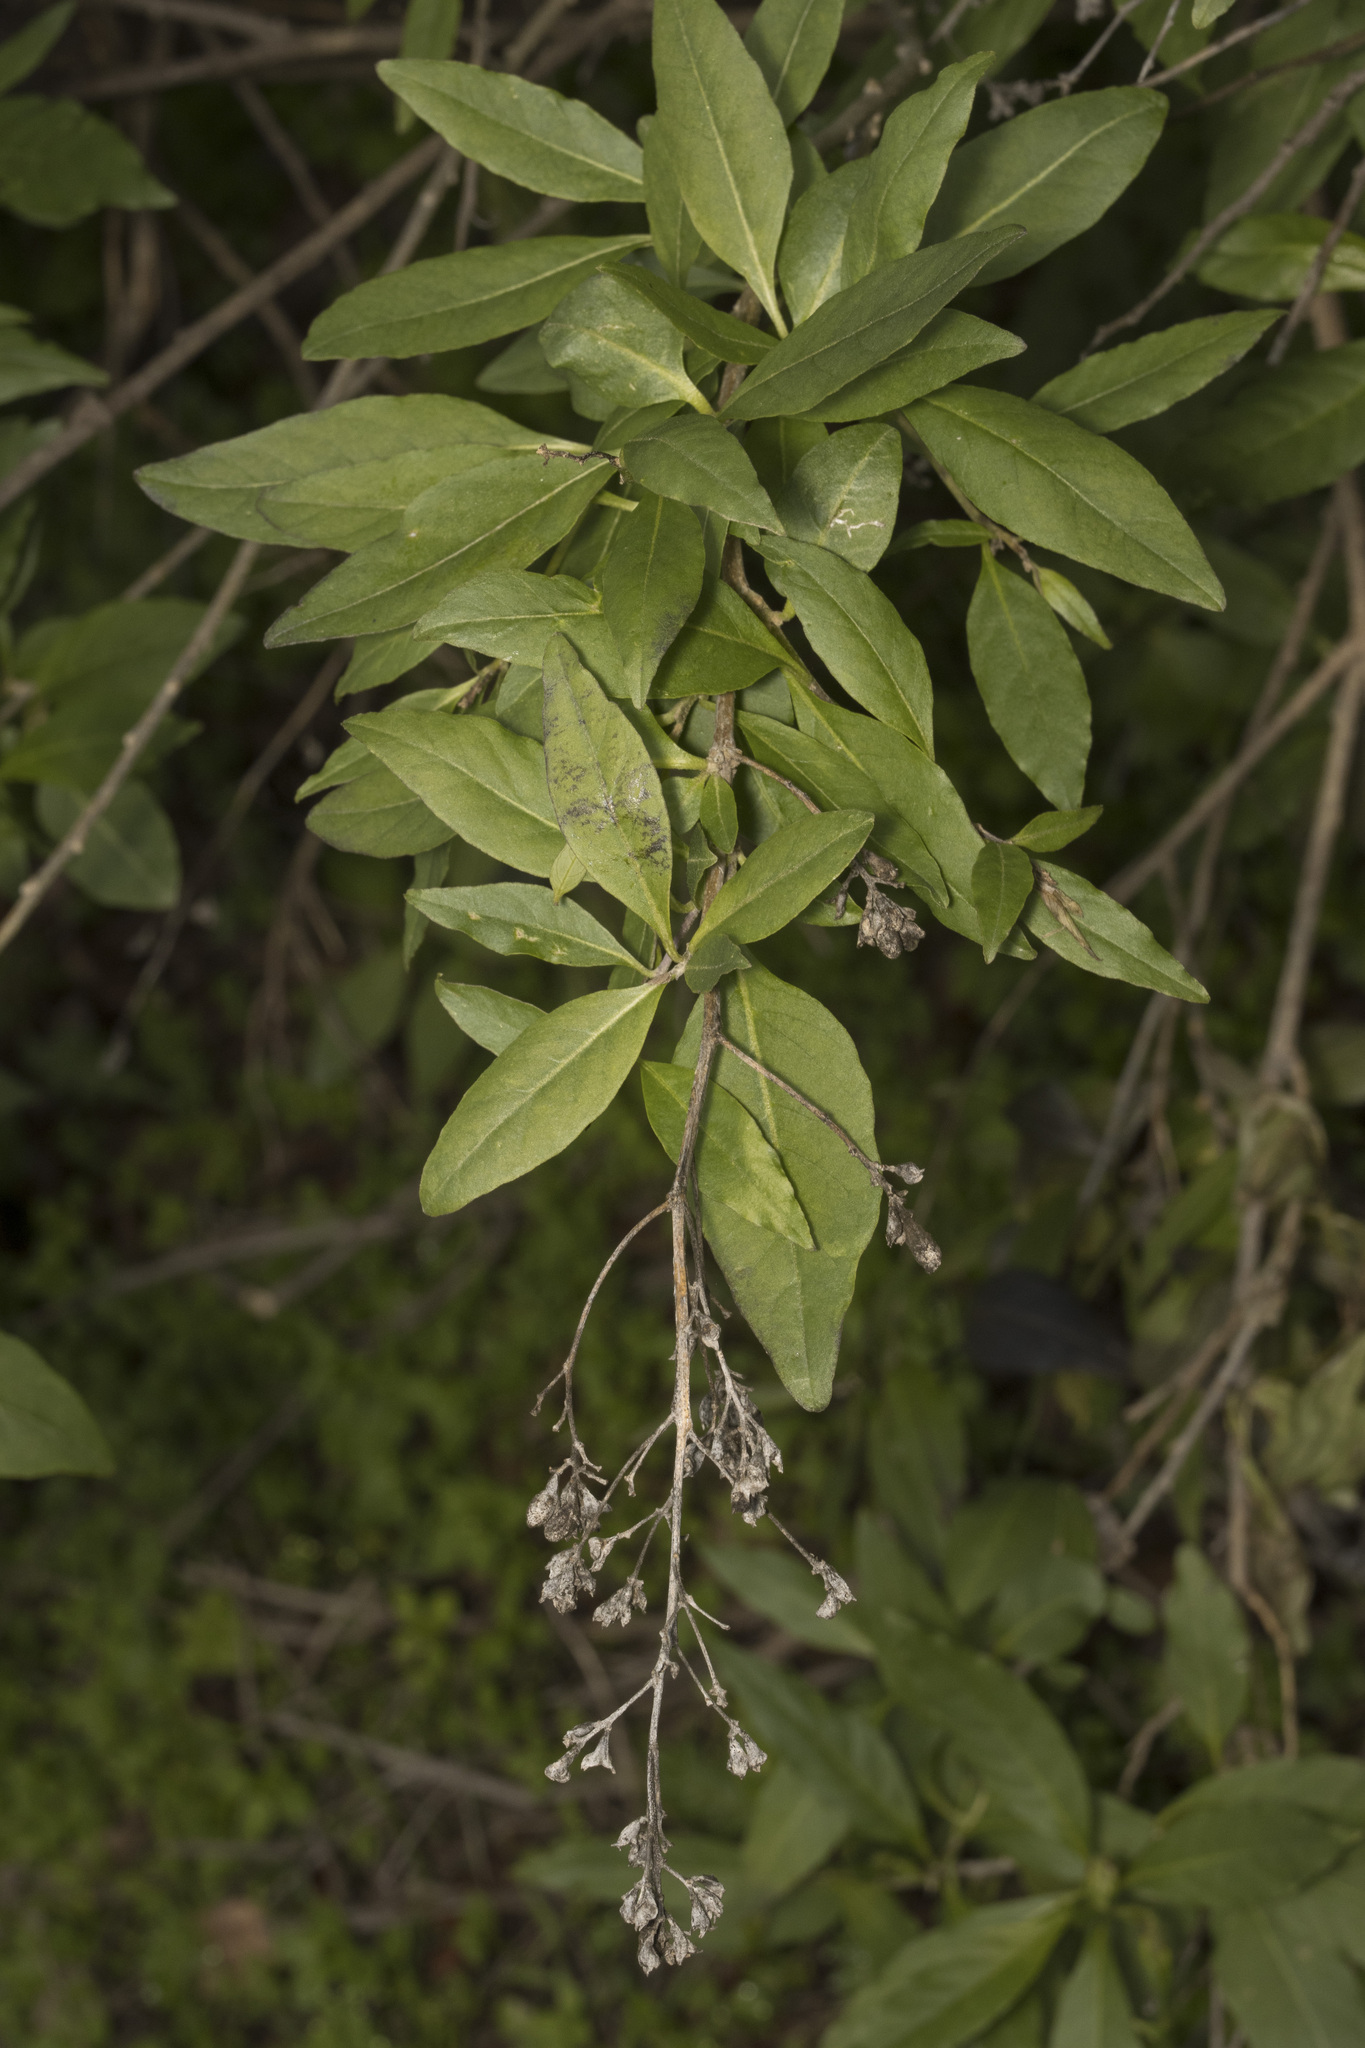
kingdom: Plantae
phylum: Tracheophyta
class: Magnoliopsida
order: Solanales
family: Solanaceae
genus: Cestrum
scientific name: Cestrum parqui
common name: Chilean cestrum
